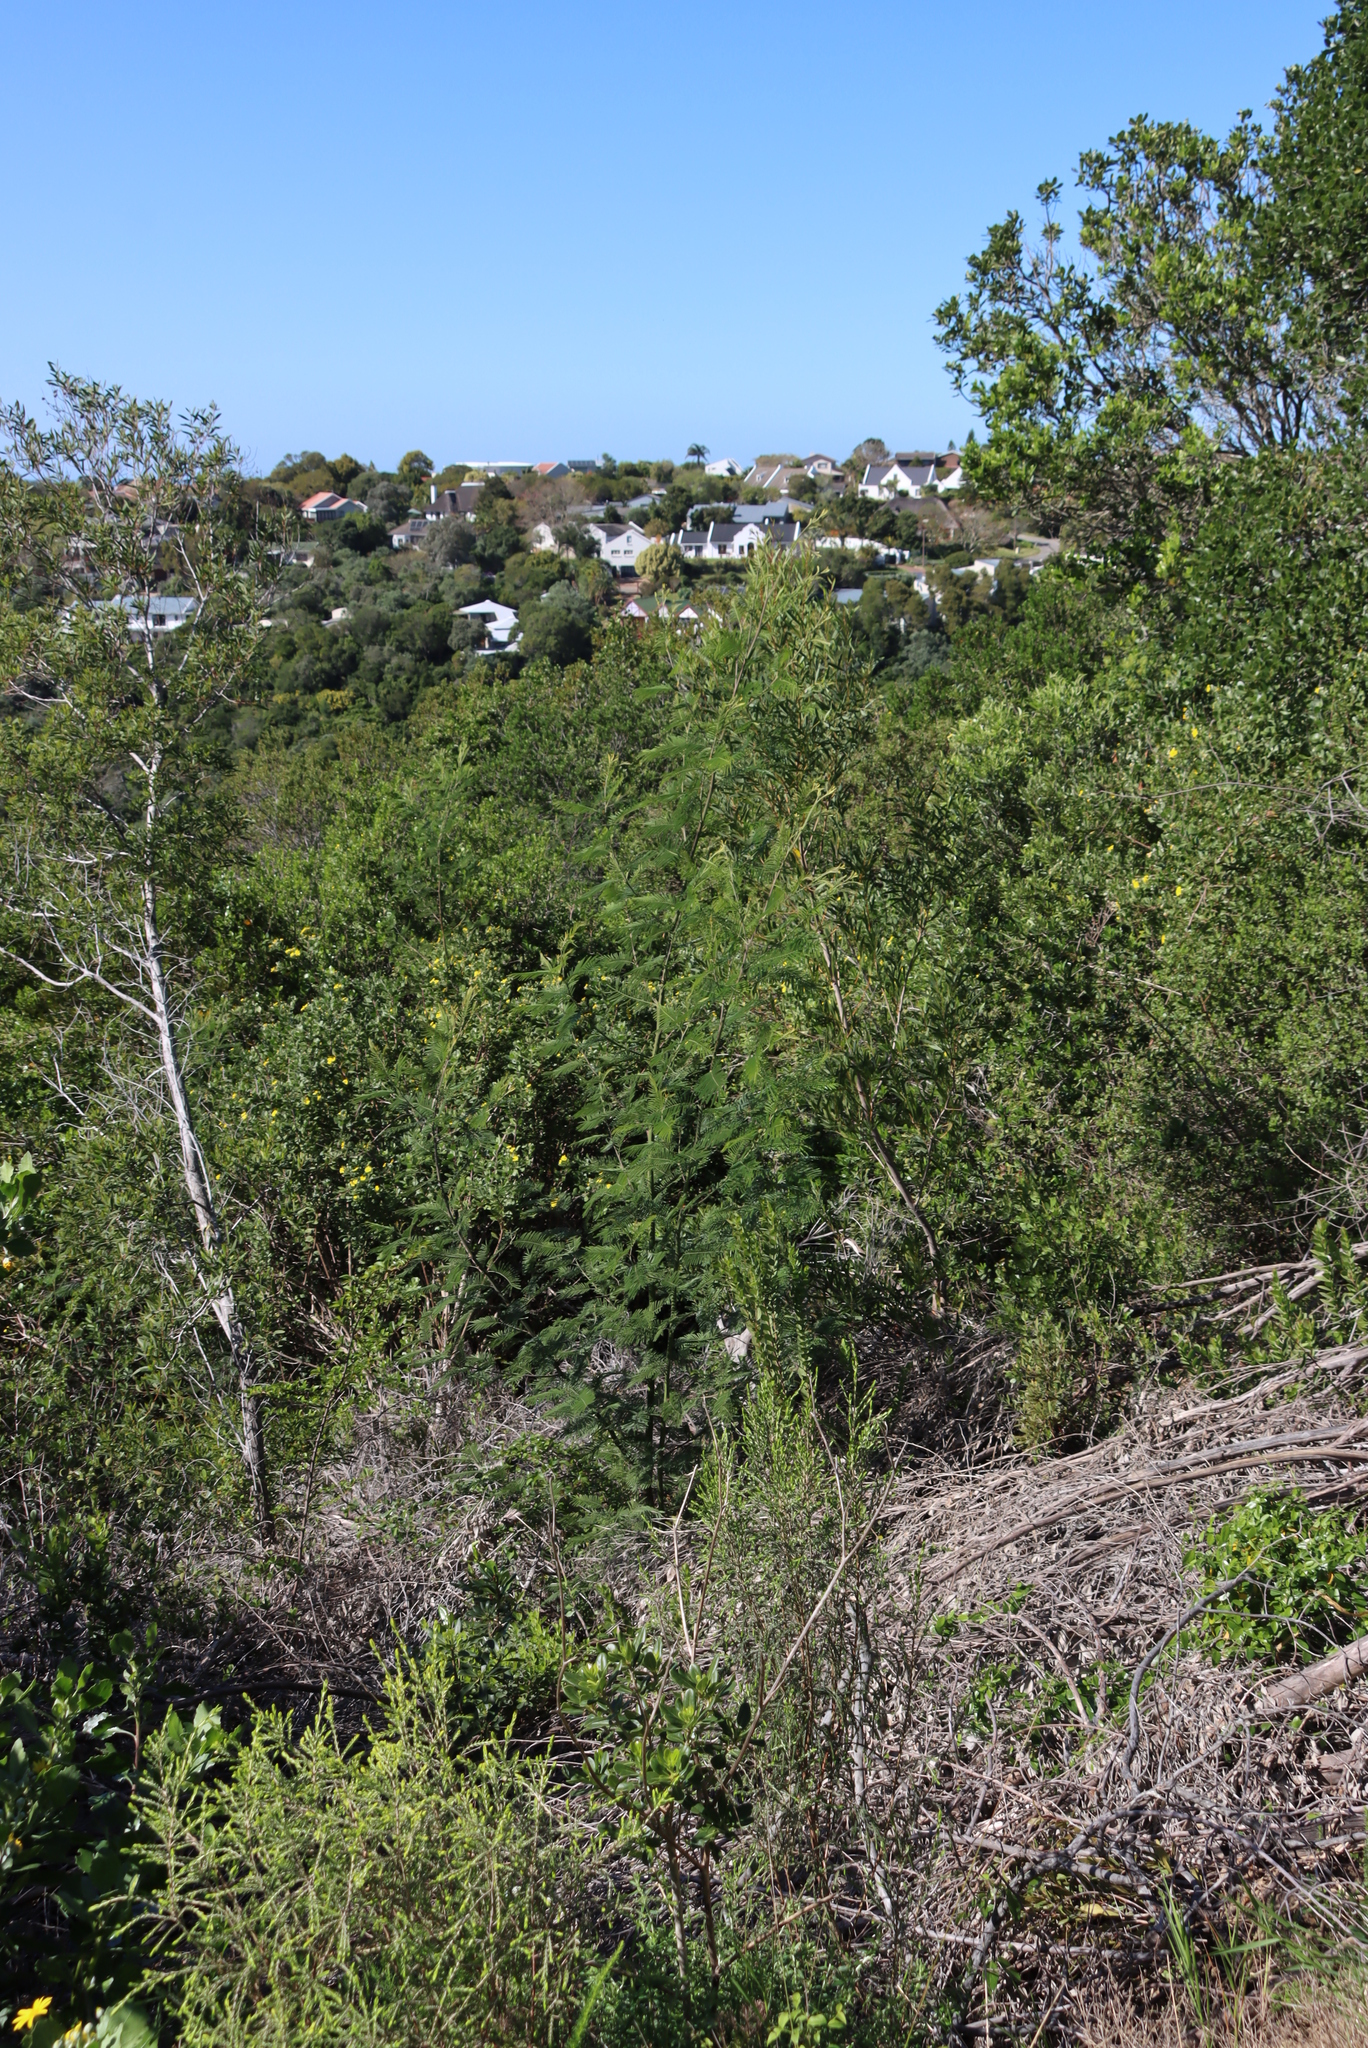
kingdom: Plantae
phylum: Tracheophyta
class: Magnoliopsida
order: Fabales
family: Fabaceae
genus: Acacia
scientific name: Acacia mearnsii
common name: Black wattle
